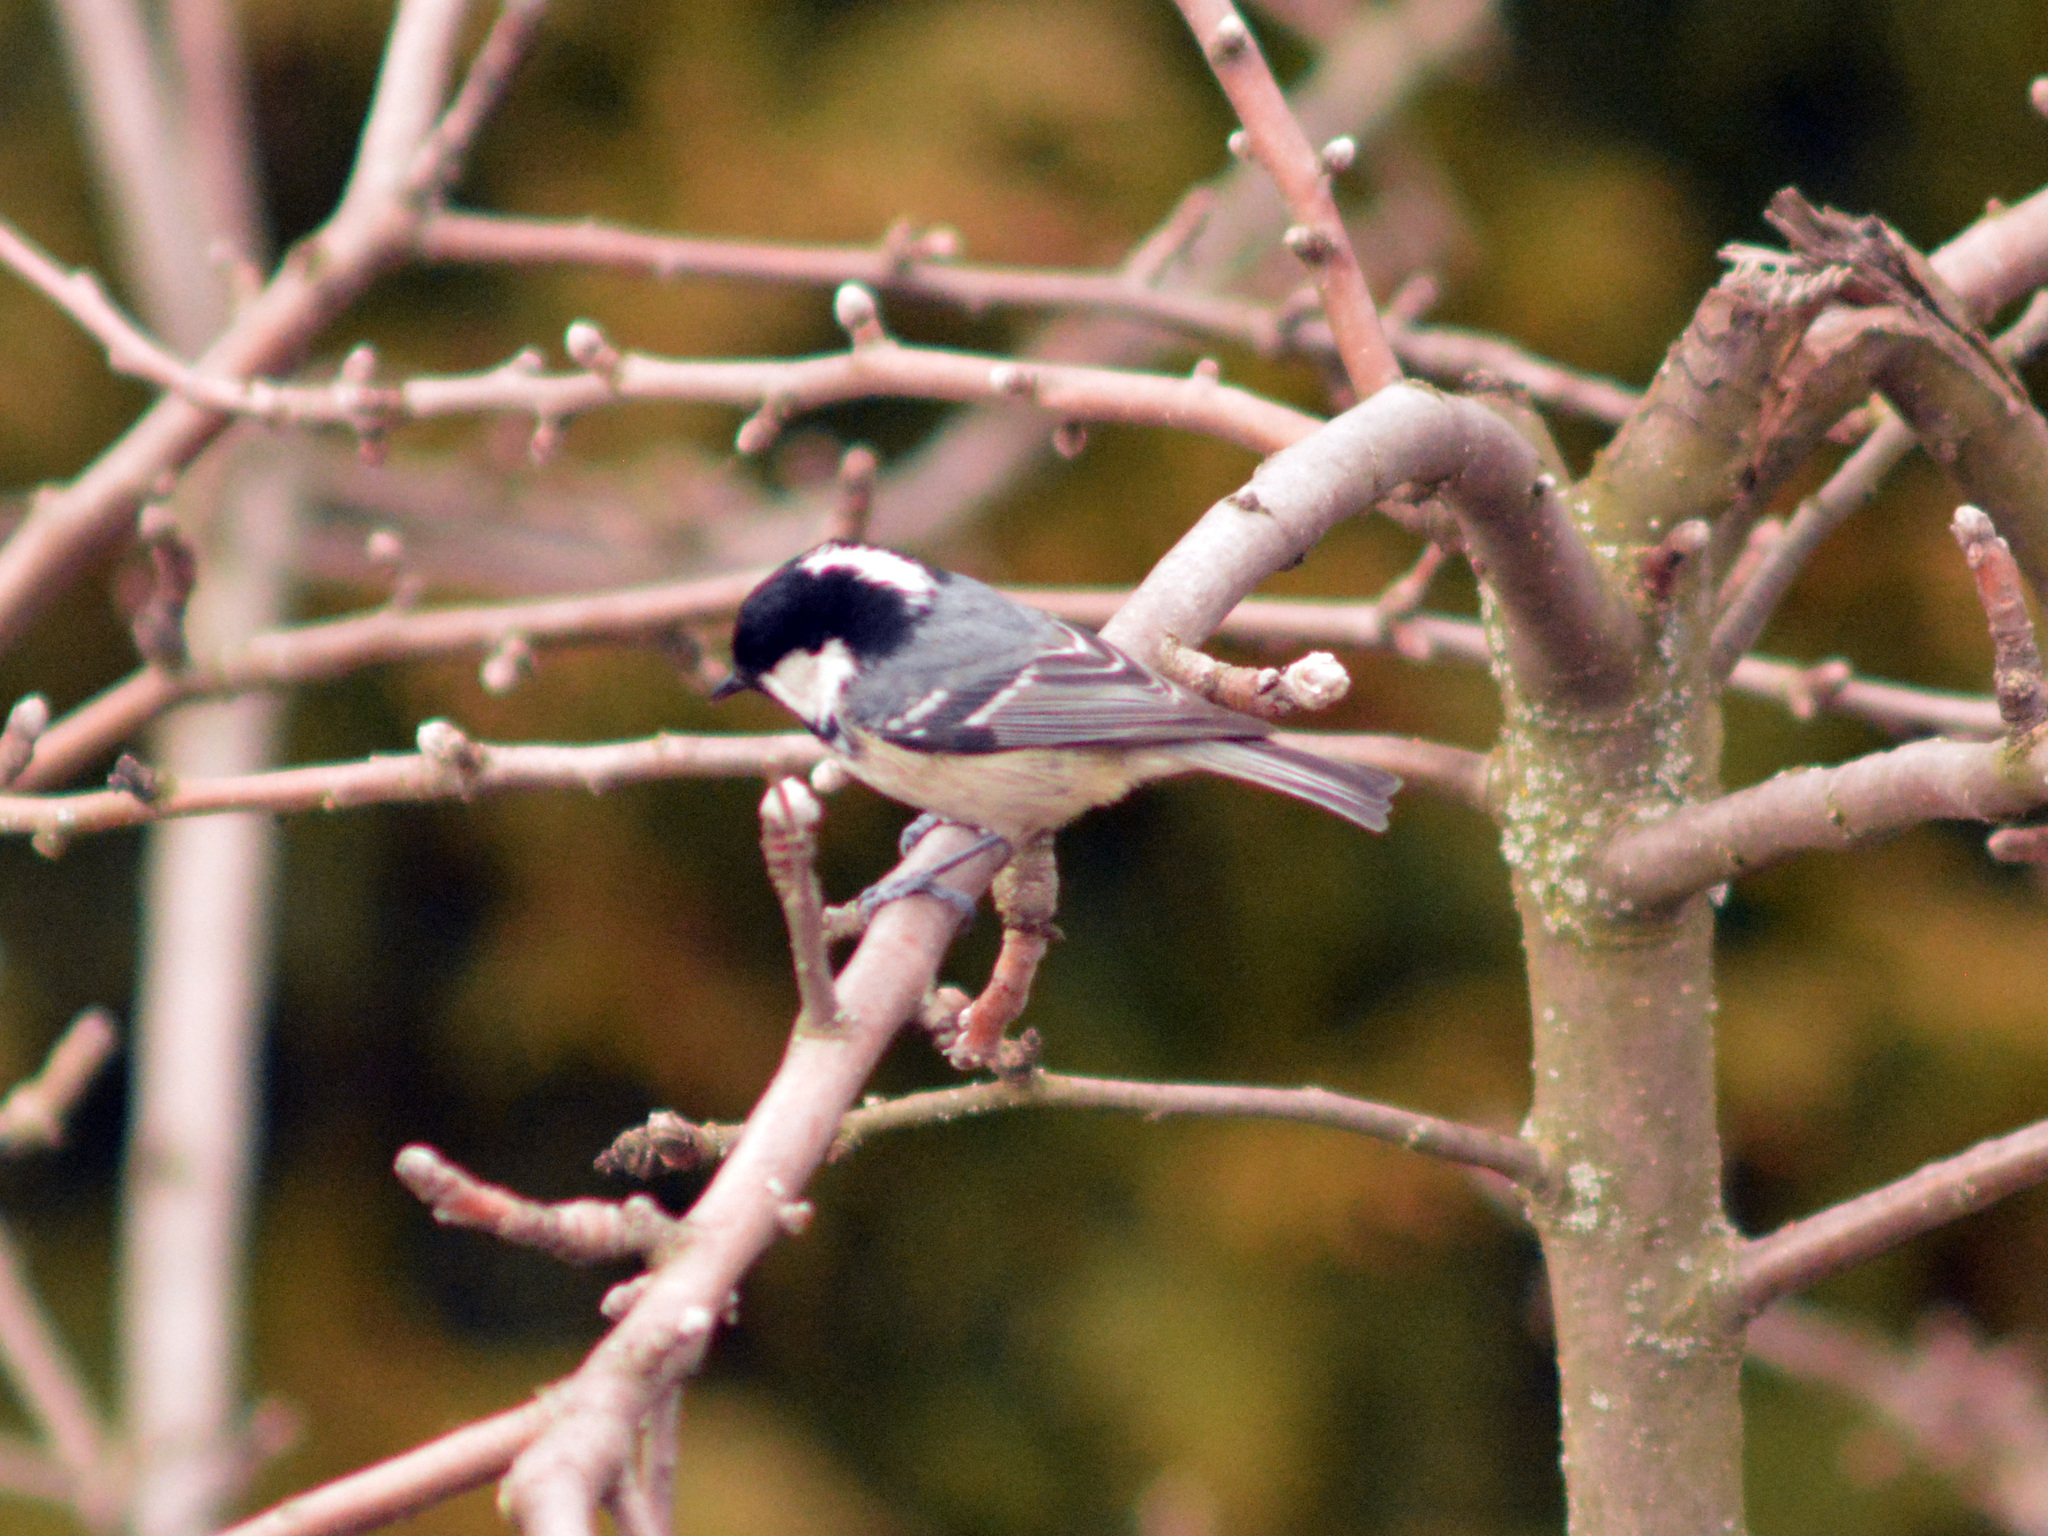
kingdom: Animalia
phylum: Chordata
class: Aves
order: Passeriformes
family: Paridae
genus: Periparus
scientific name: Periparus ater
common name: Coal tit
